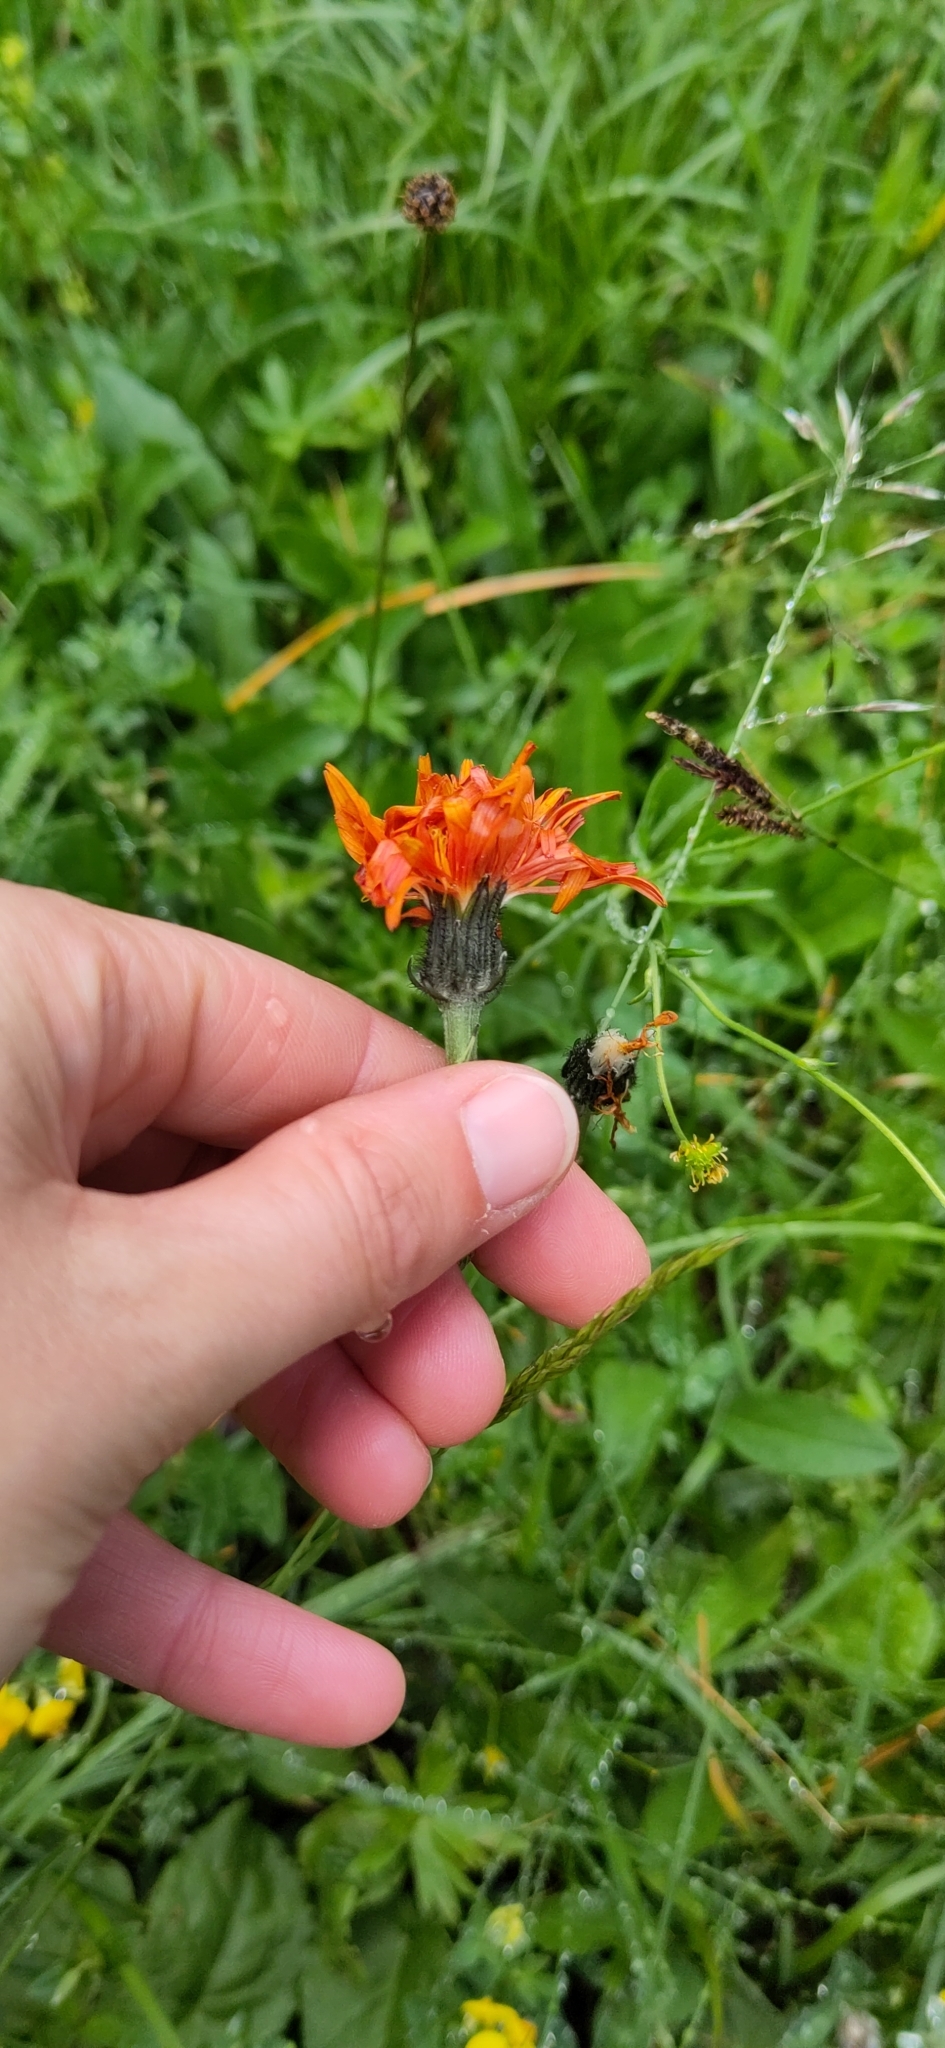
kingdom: Plantae
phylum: Tracheophyta
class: Magnoliopsida
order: Asterales
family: Asteraceae
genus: Crepis
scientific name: Crepis aurea
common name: Golden hawk's-beard
